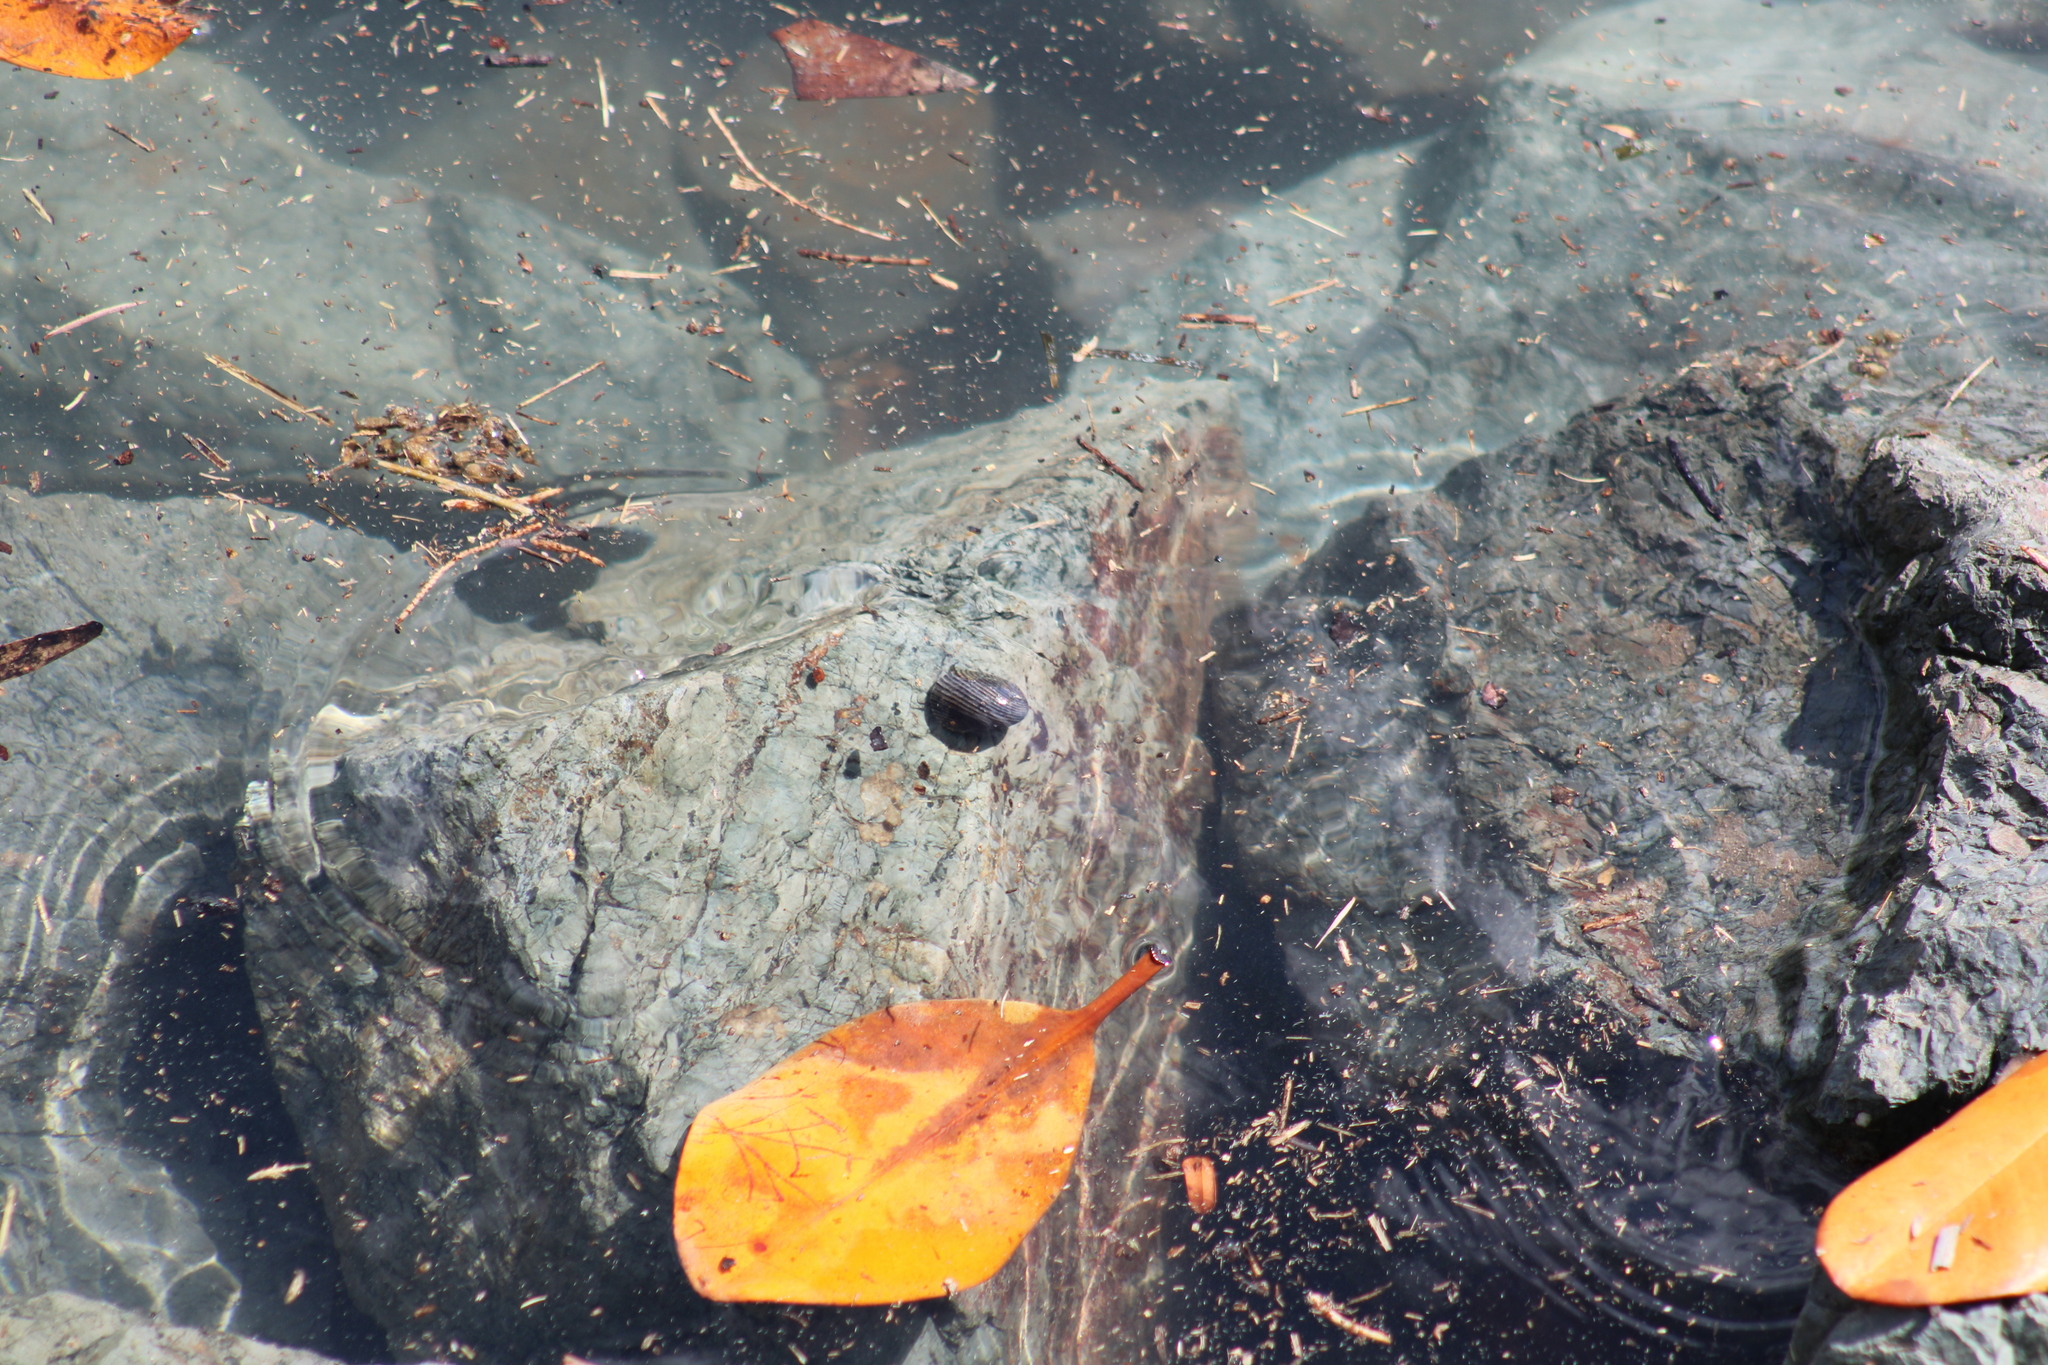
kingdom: Animalia
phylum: Mollusca
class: Gastropoda
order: Cycloneritida
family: Neritidae
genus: Nerita
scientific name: Nerita balteata
